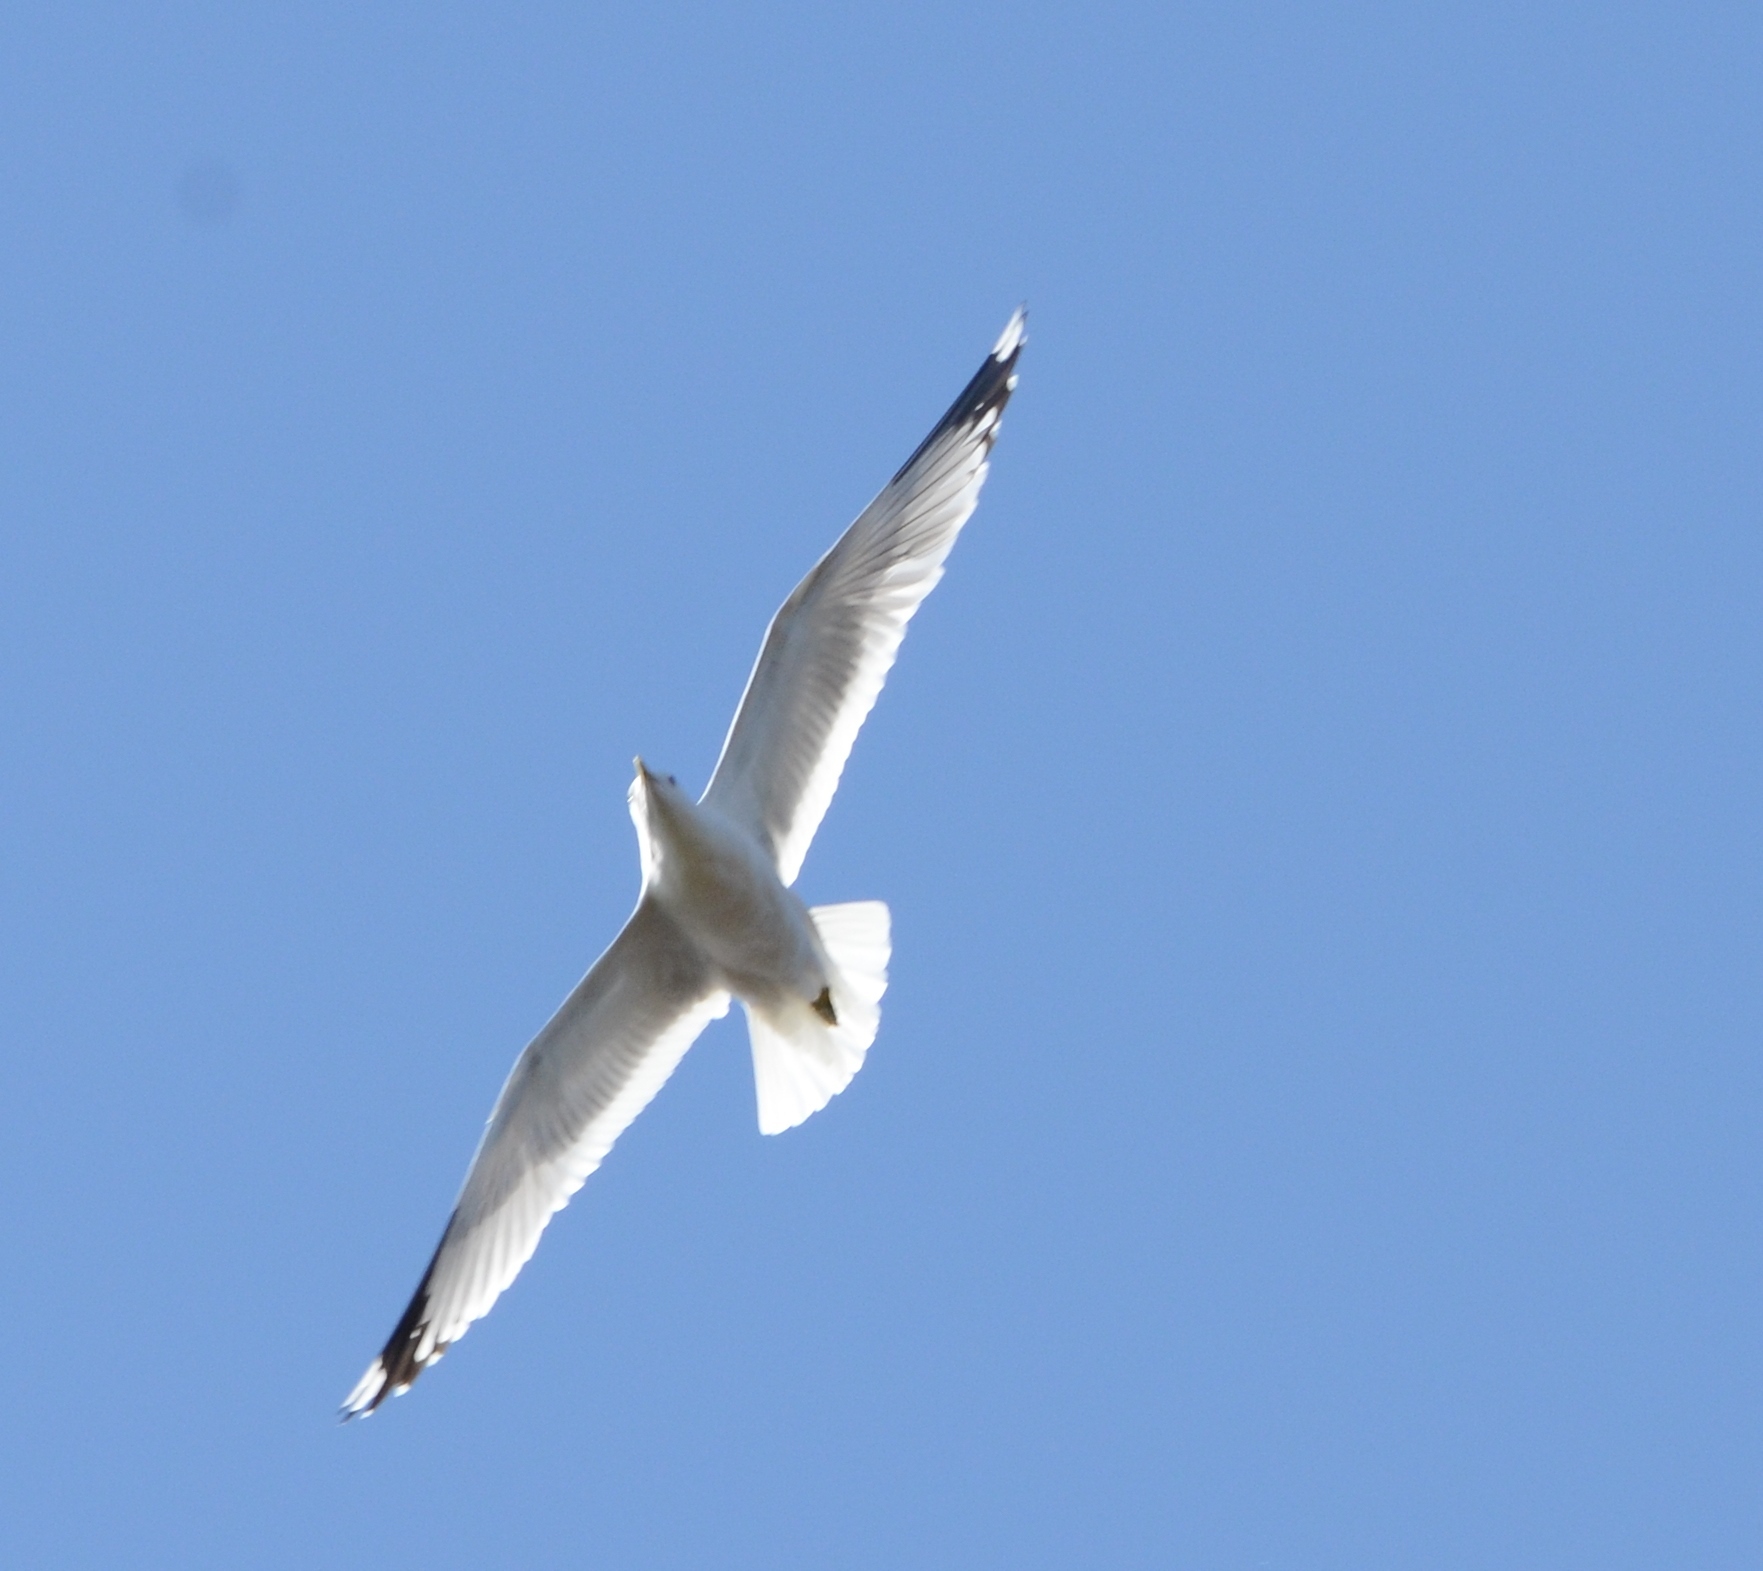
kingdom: Animalia
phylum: Chordata
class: Aves
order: Charadriiformes
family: Laridae
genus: Larus
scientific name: Larus canus
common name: Mew gull
